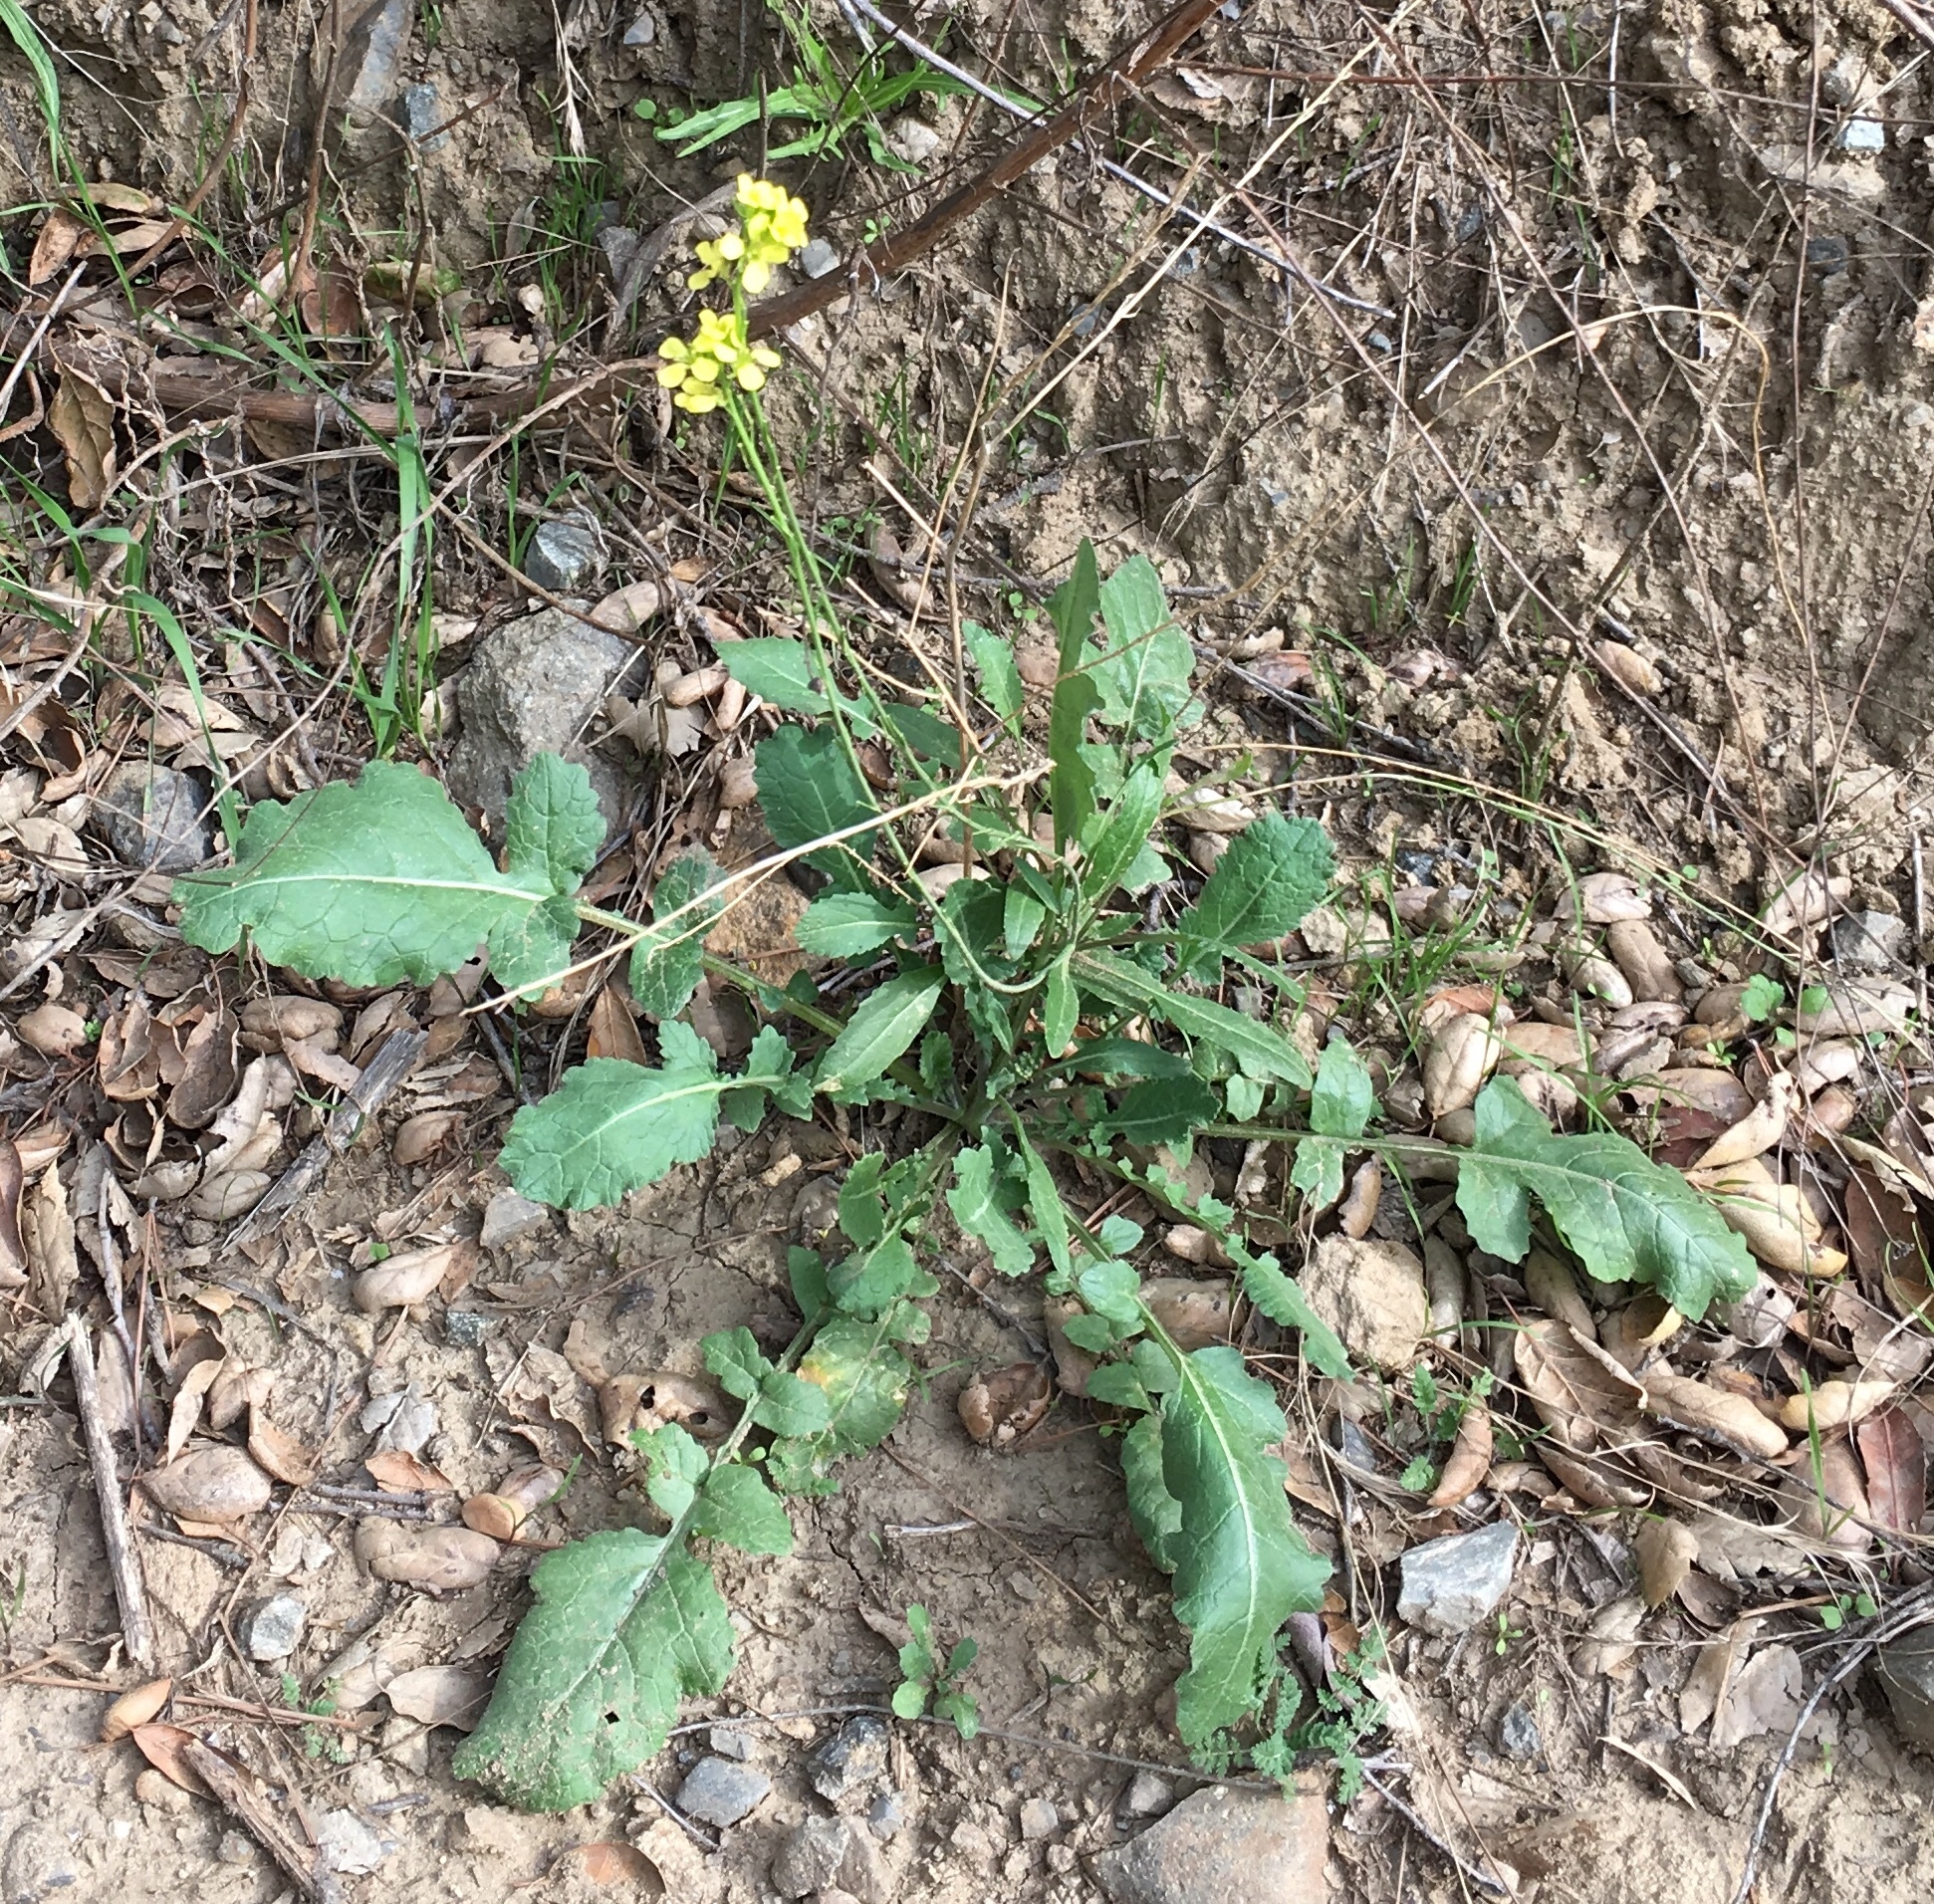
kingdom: Plantae
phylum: Tracheophyta
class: Magnoliopsida
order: Brassicales
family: Brassicaceae
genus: Hirschfeldia
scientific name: Hirschfeldia incana
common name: Hoary mustard
